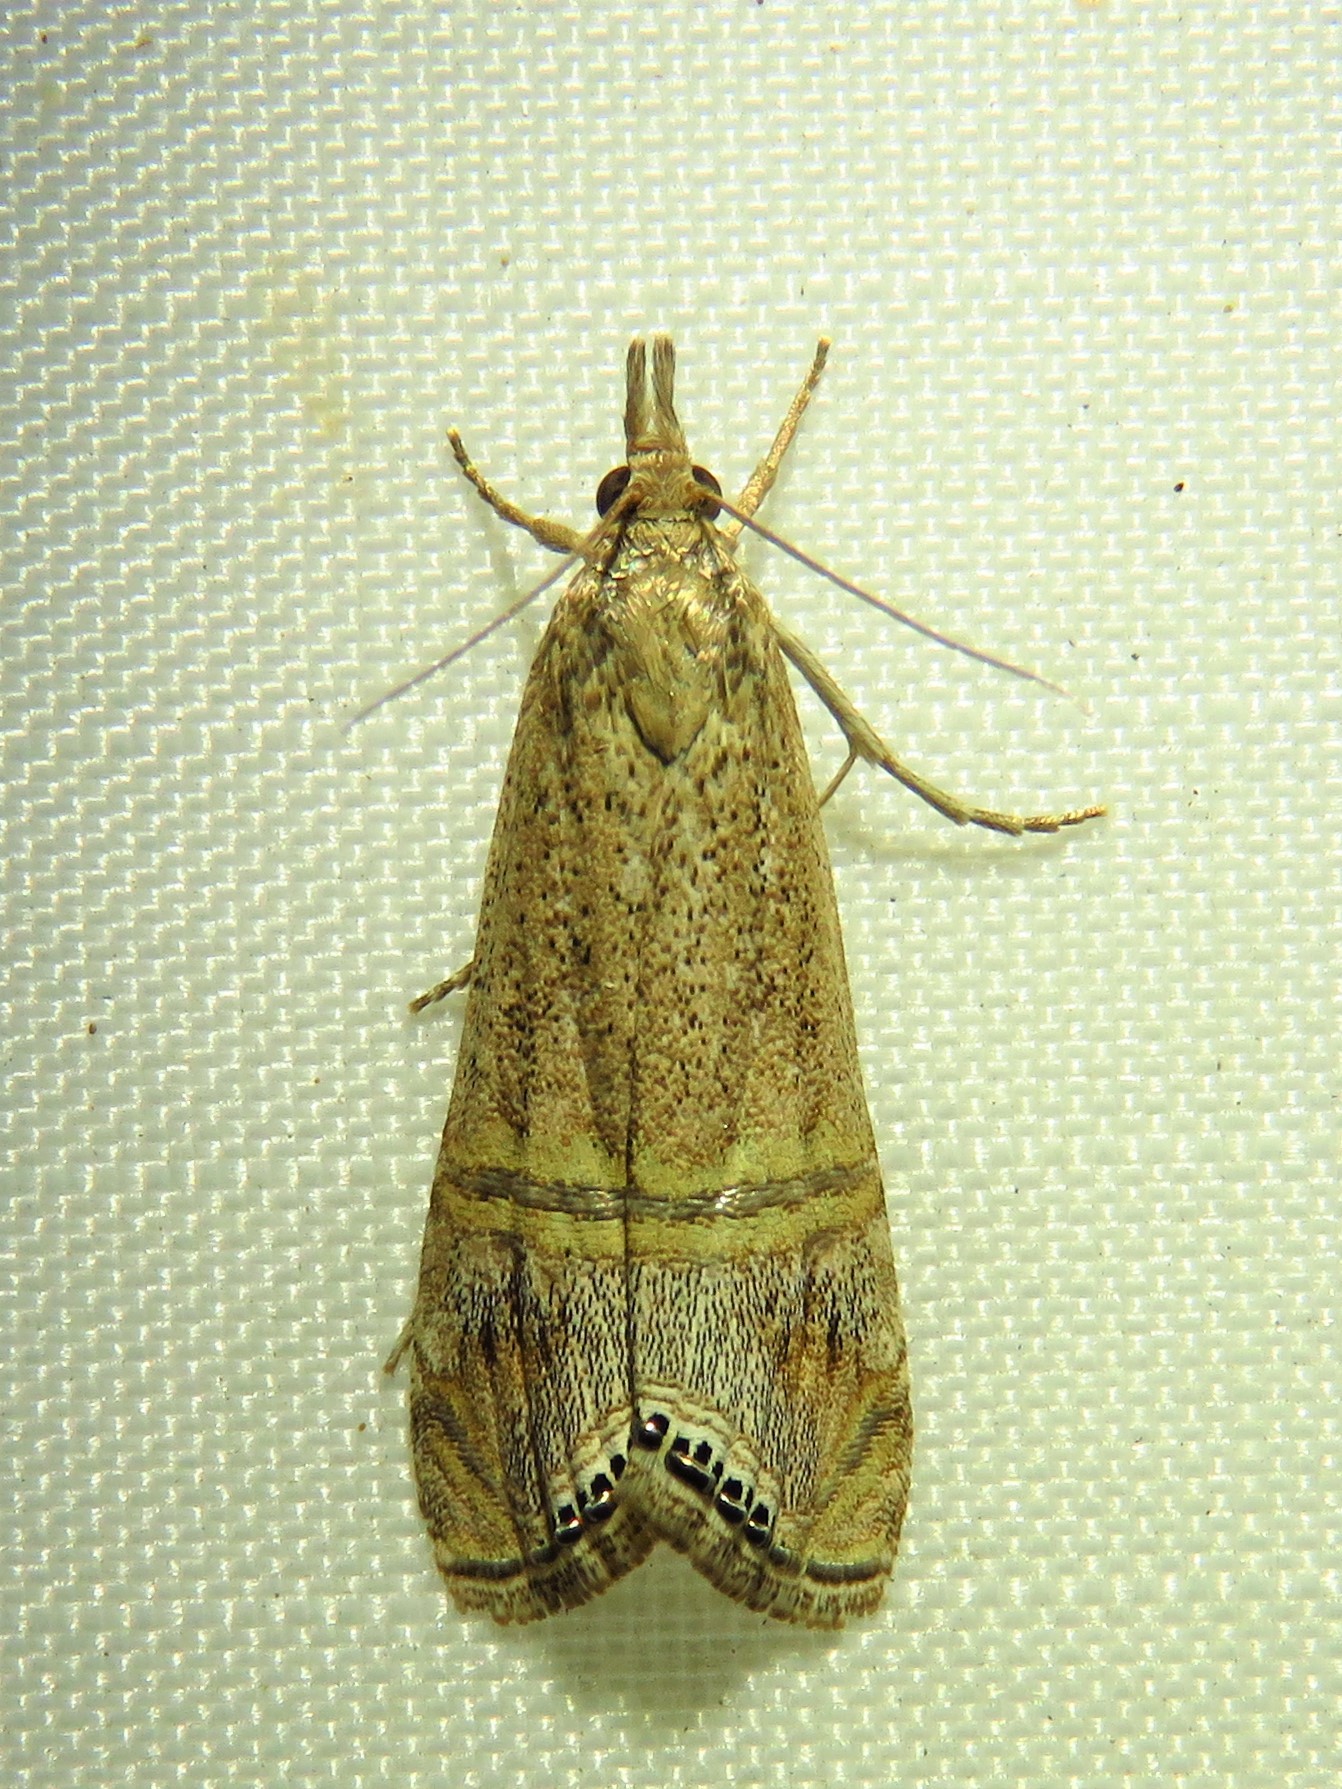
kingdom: Animalia
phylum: Arthropoda
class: Insecta
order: Lepidoptera
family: Crambidae
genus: Euchromius
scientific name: Euchromius ocellea
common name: Necklace veneer moth
